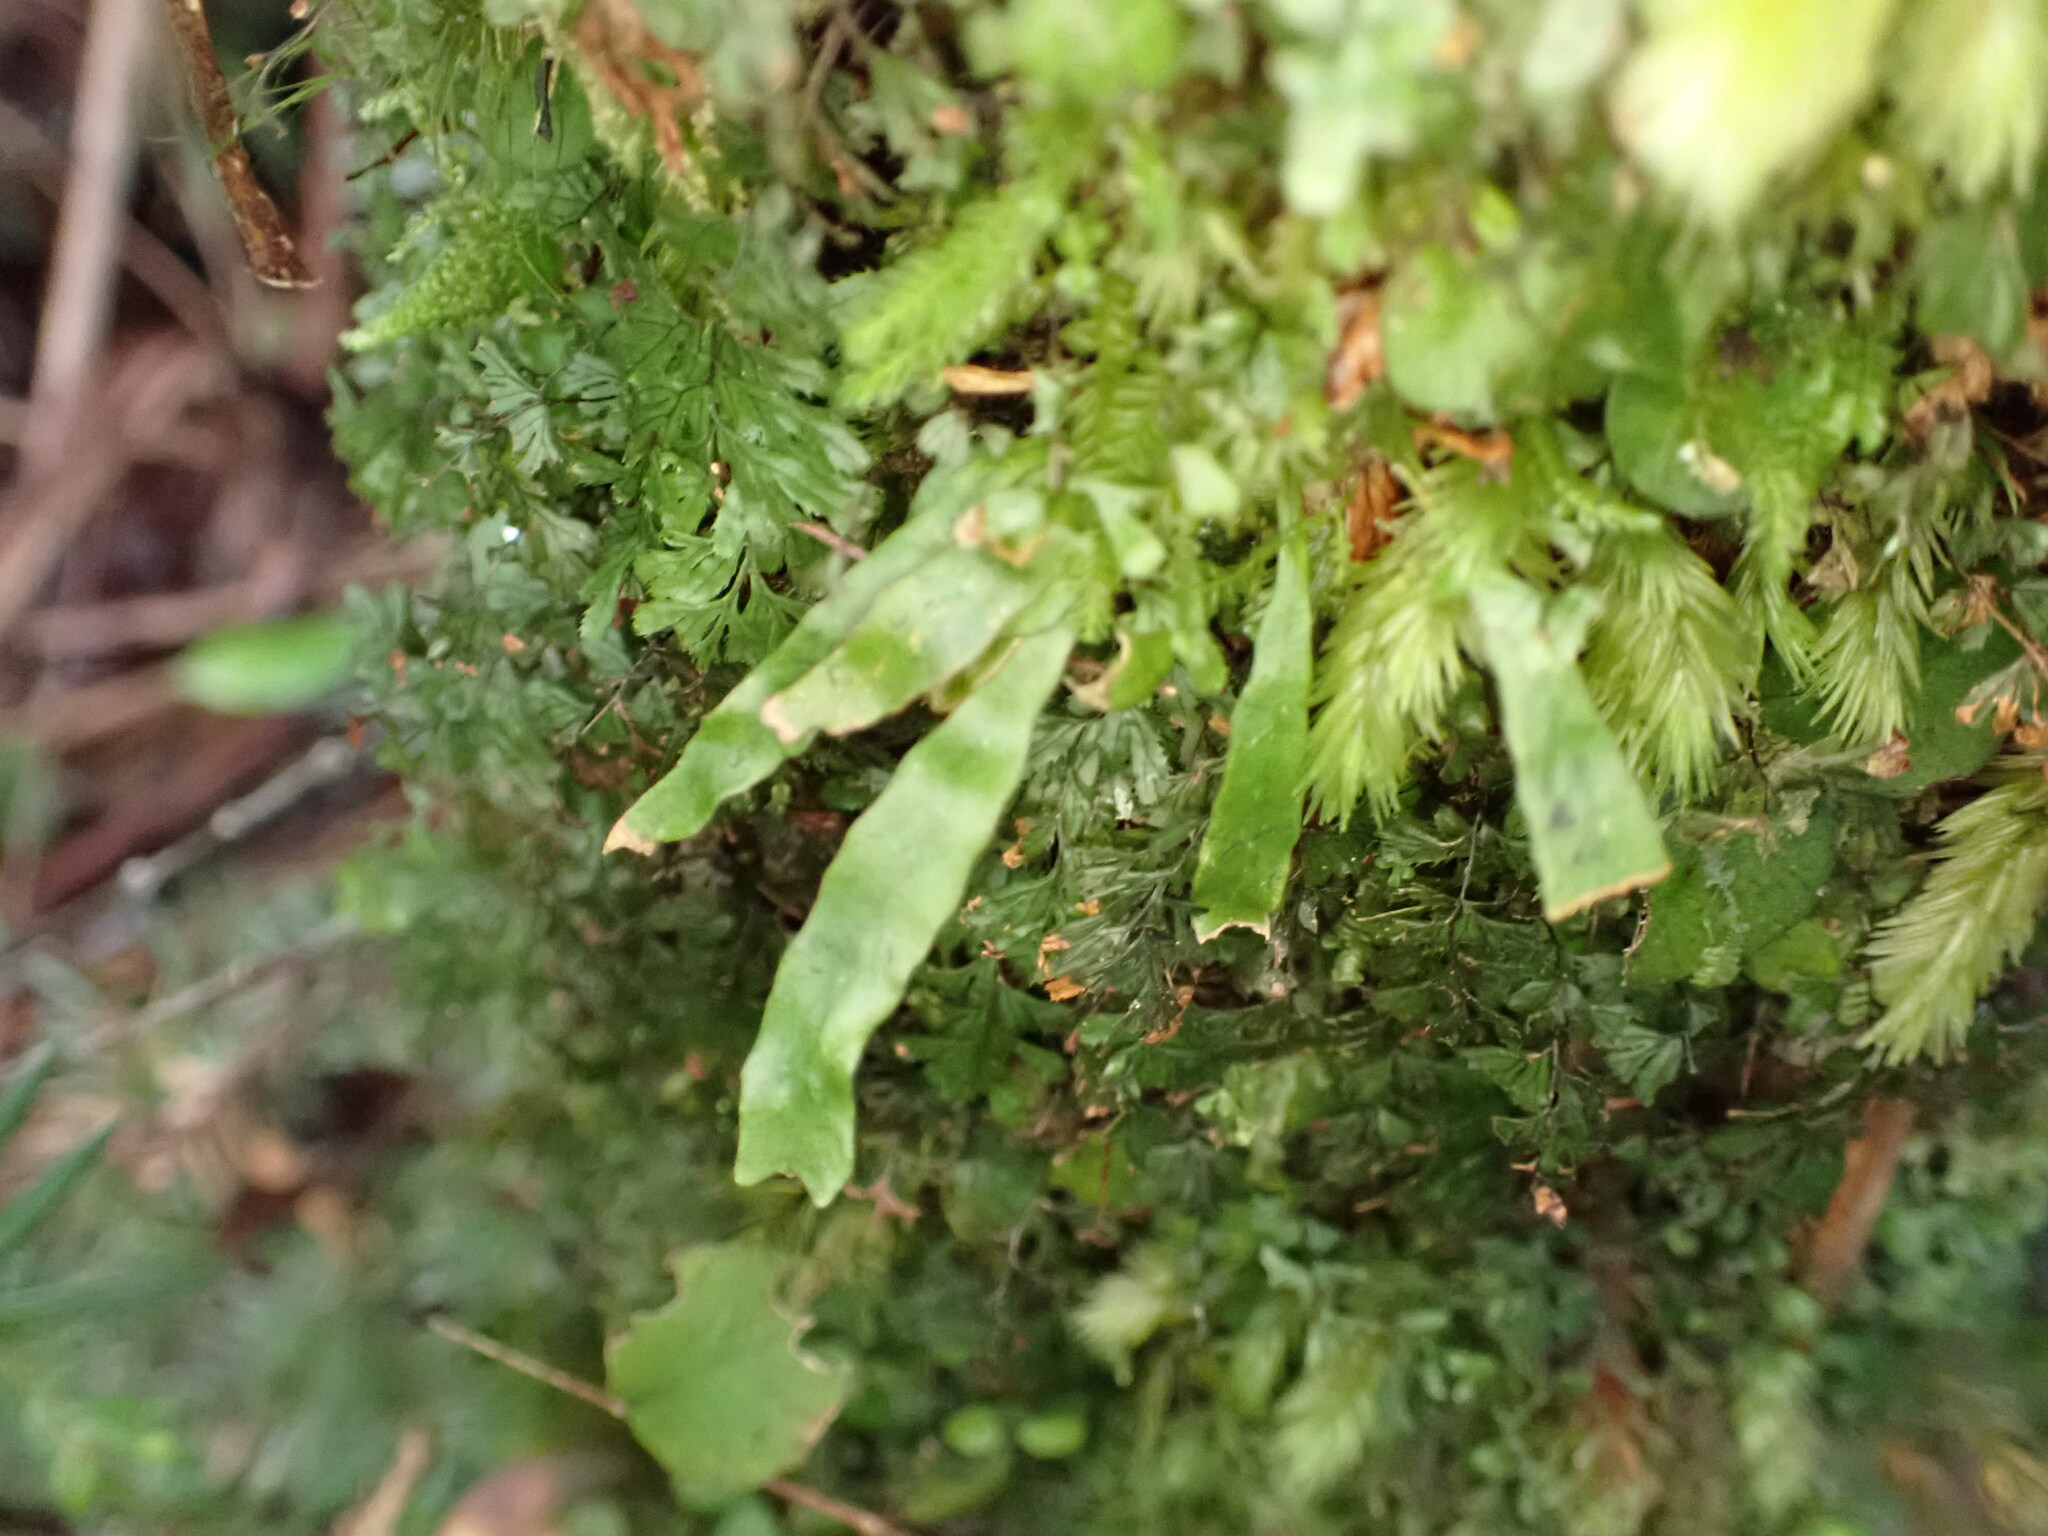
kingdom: Plantae
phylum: Tracheophyta
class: Polypodiopsida
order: Polypodiales
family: Polypodiaceae
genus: Notogrammitis
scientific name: Notogrammitis billardierei
